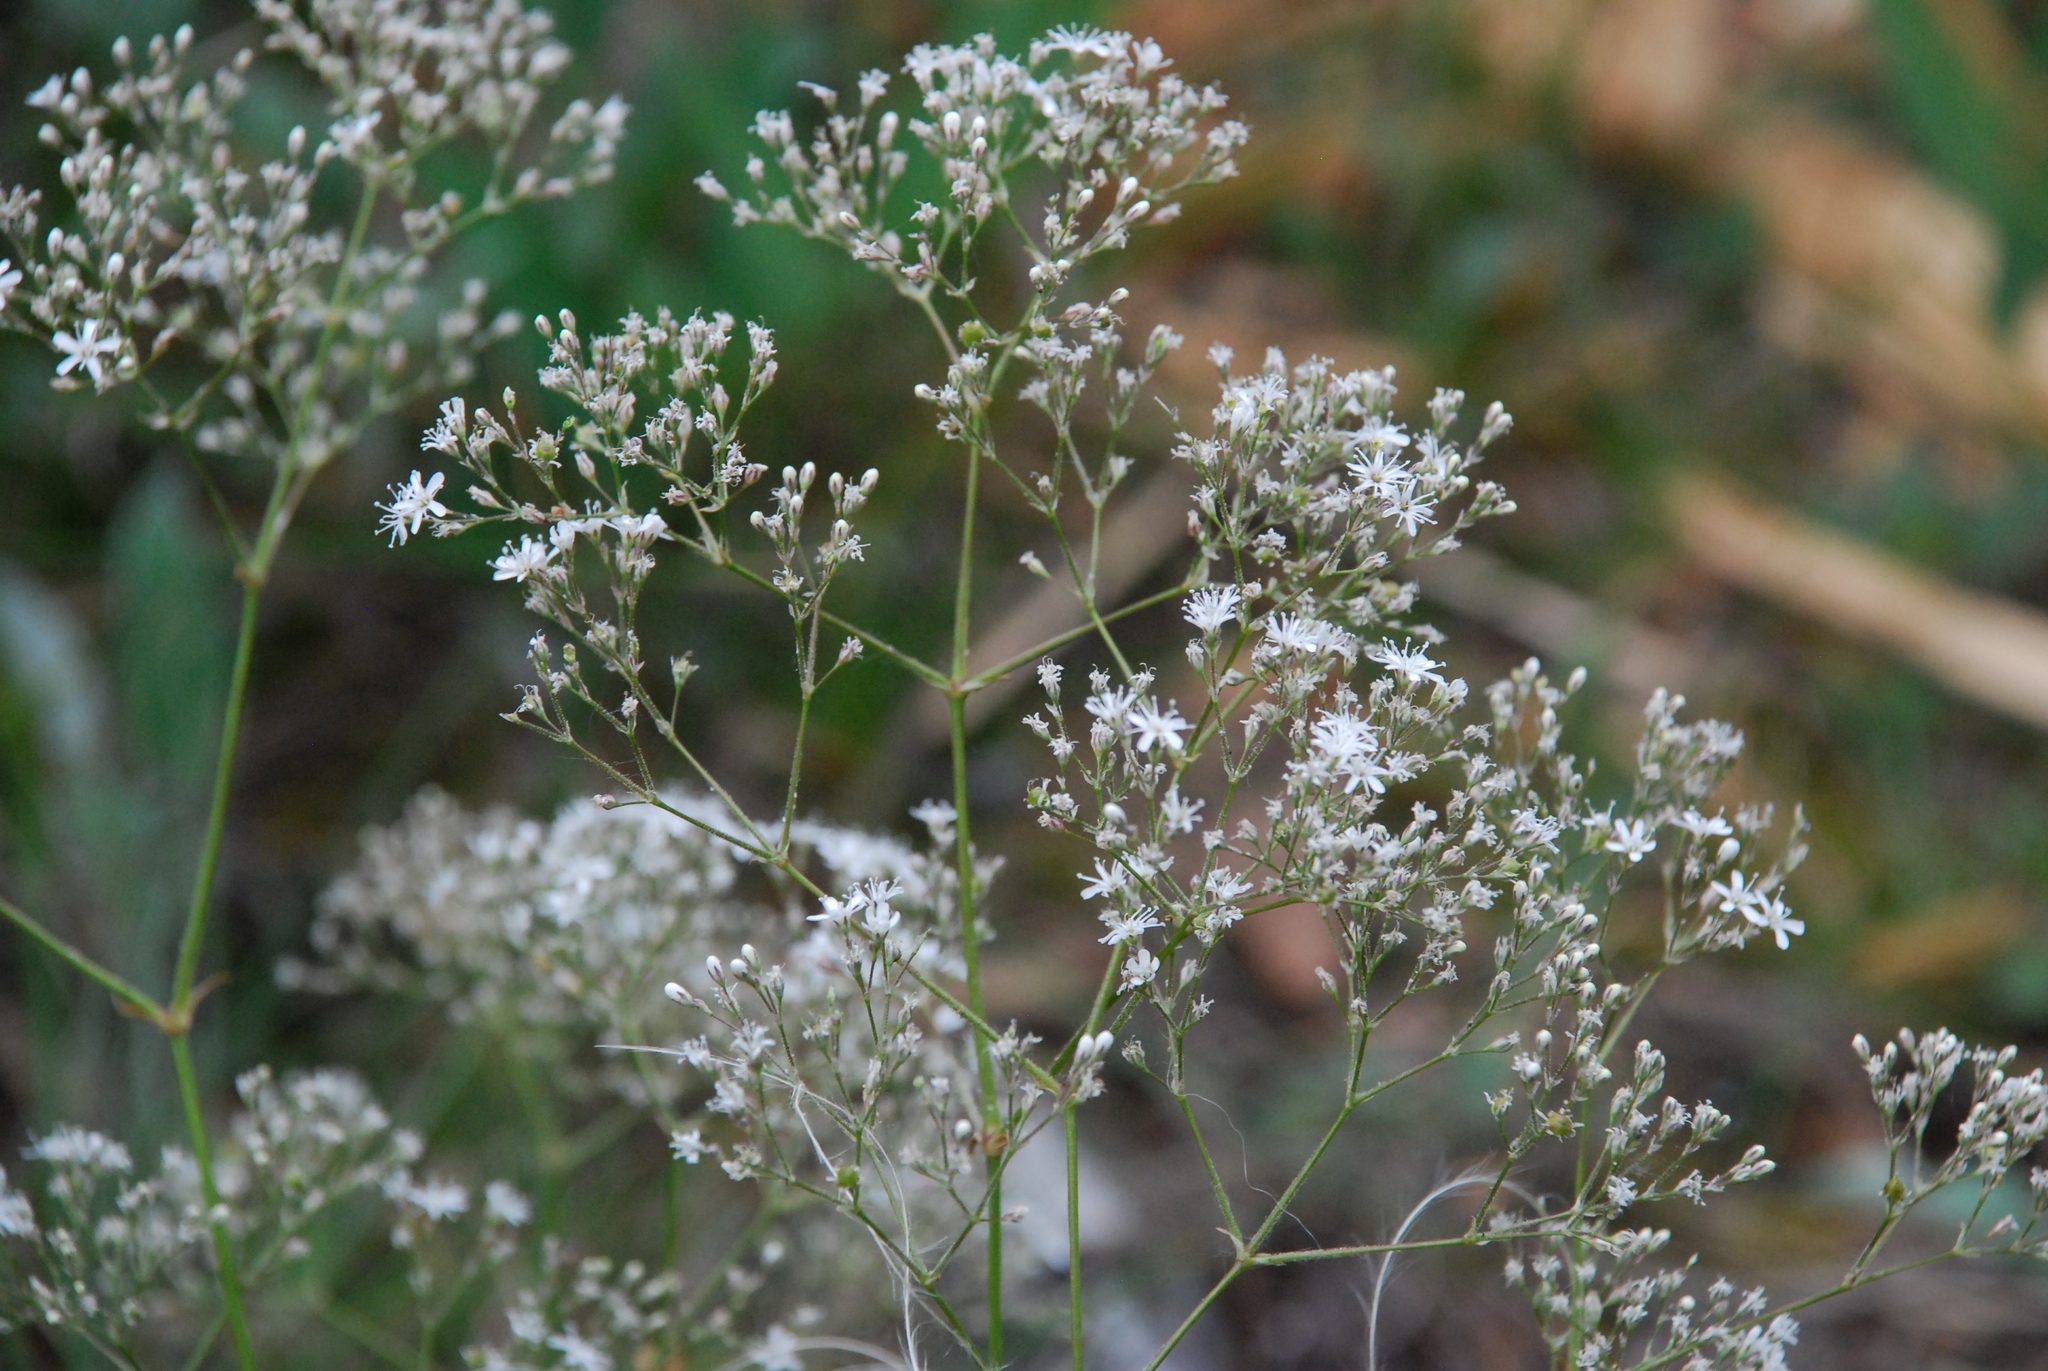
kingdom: Plantae
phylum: Tracheophyta
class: Magnoliopsida
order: Caryophyllales
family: Caryophyllaceae
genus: Gypsophila
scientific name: Gypsophila altissima
